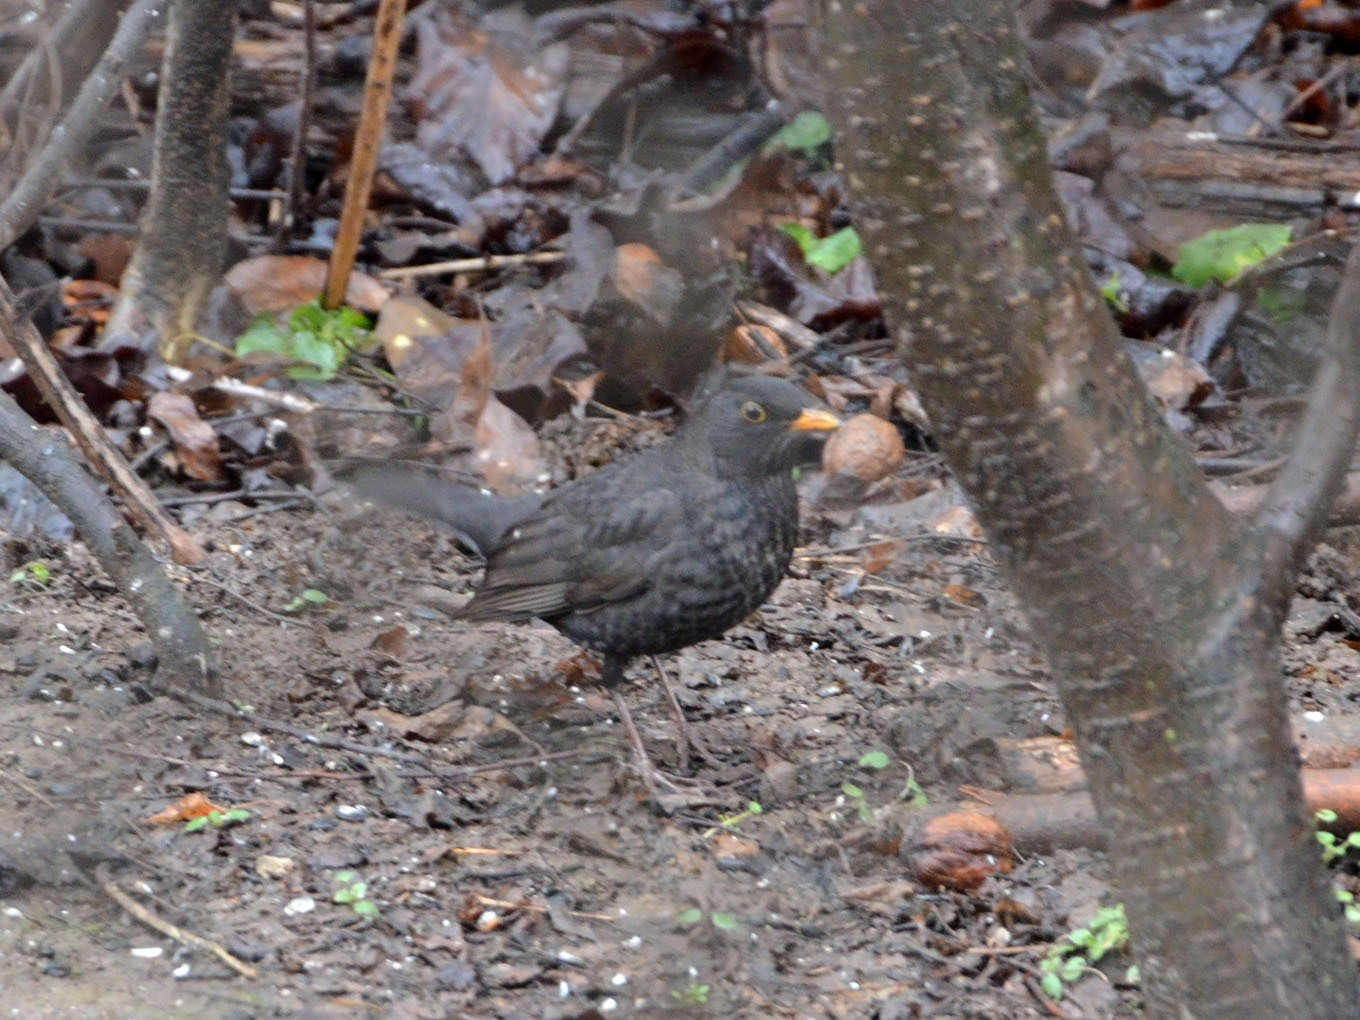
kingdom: Animalia
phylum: Chordata
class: Aves
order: Passeriformes
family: Turdidae
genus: Turdus
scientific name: Turdus merula
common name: Common blackbird
